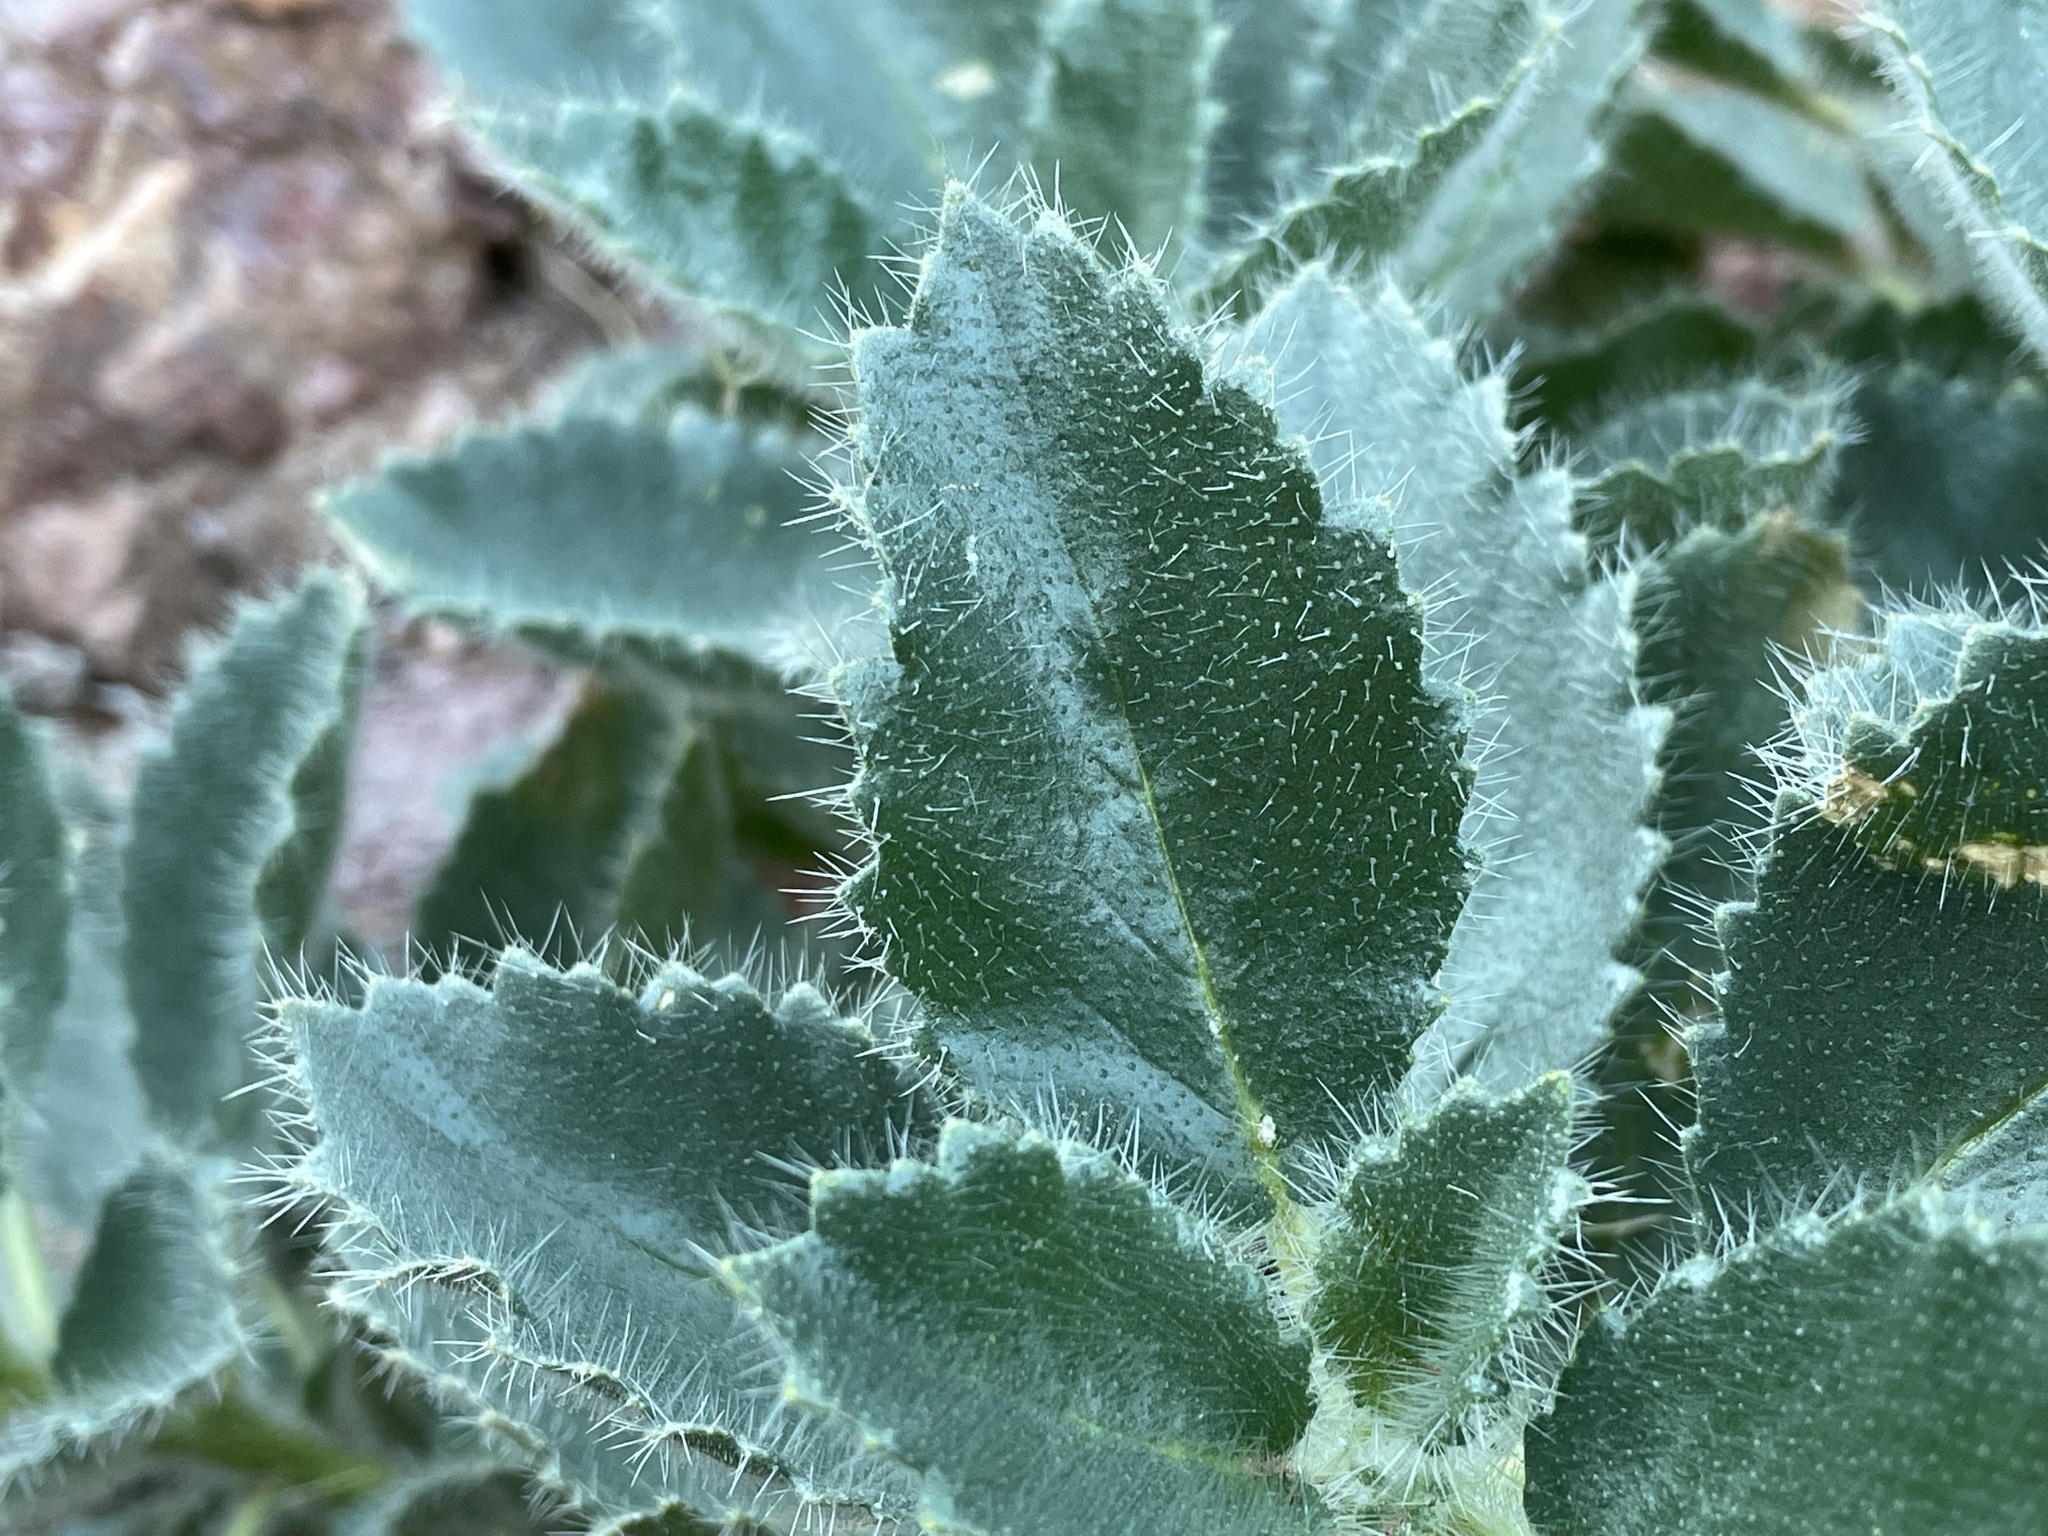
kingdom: Plantae
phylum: Tracheophyta
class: Magnoliopsida
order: Cornales
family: Loasaceae
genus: Eucnide
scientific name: Eucnide urens
